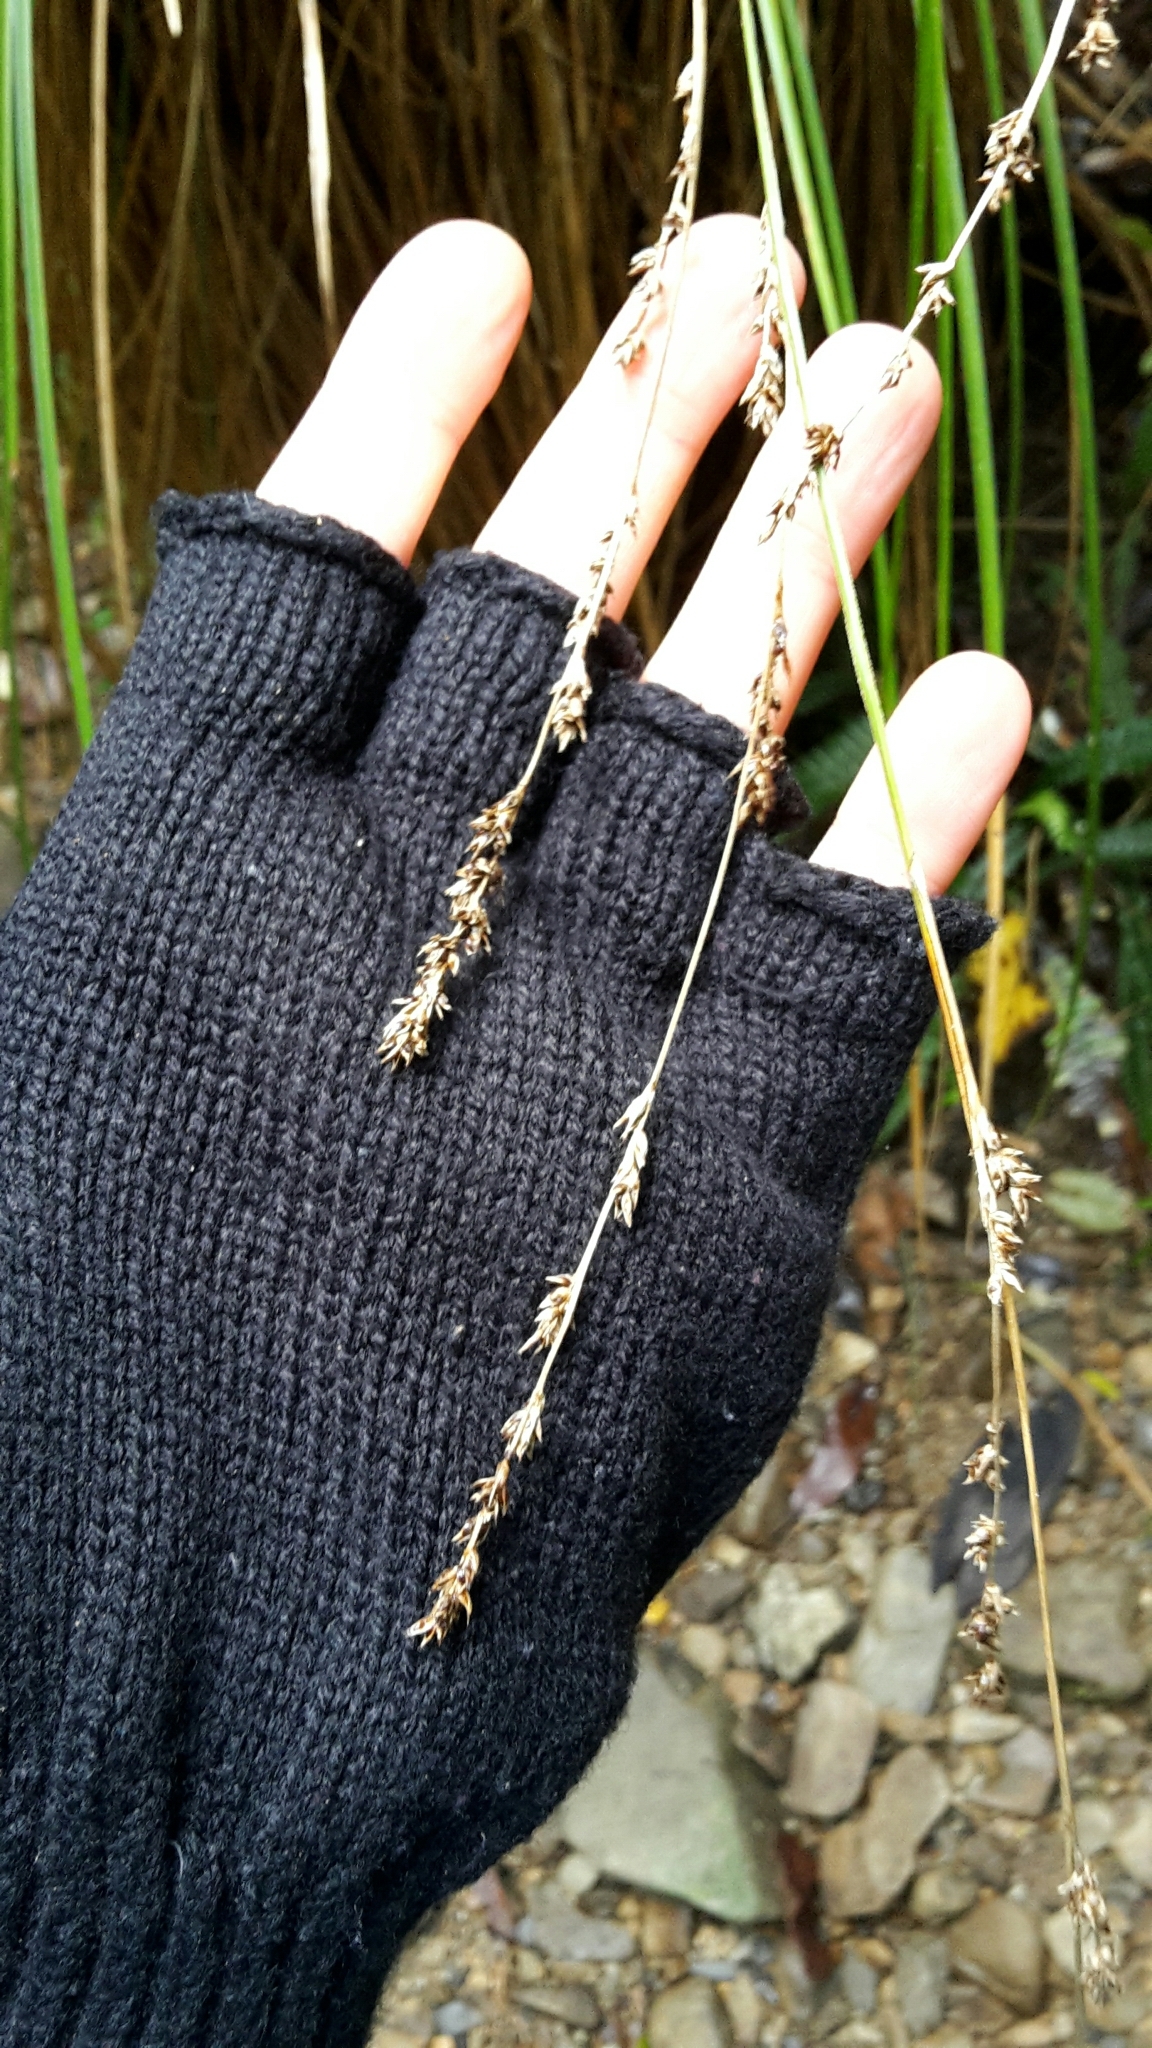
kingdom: Plantae
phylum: Tracheophyta
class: Liliopsida
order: Poales
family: Cyperaceae
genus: Carex
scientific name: Carex secta
